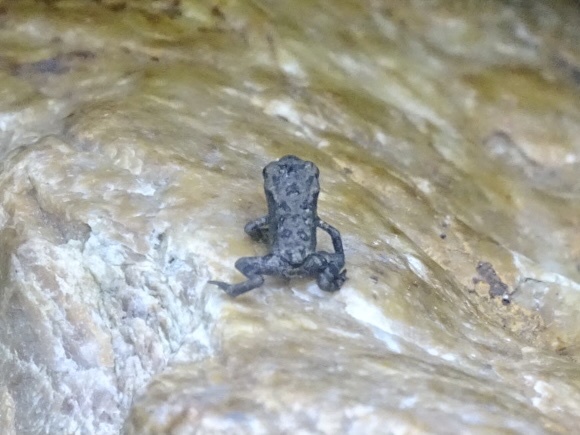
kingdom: Animalia
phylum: Chordata
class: Amphibia
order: Anura
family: Bufonidae
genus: Duttaphrynus
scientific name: Duttaphrynus melanostictus
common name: Common sunda toad
